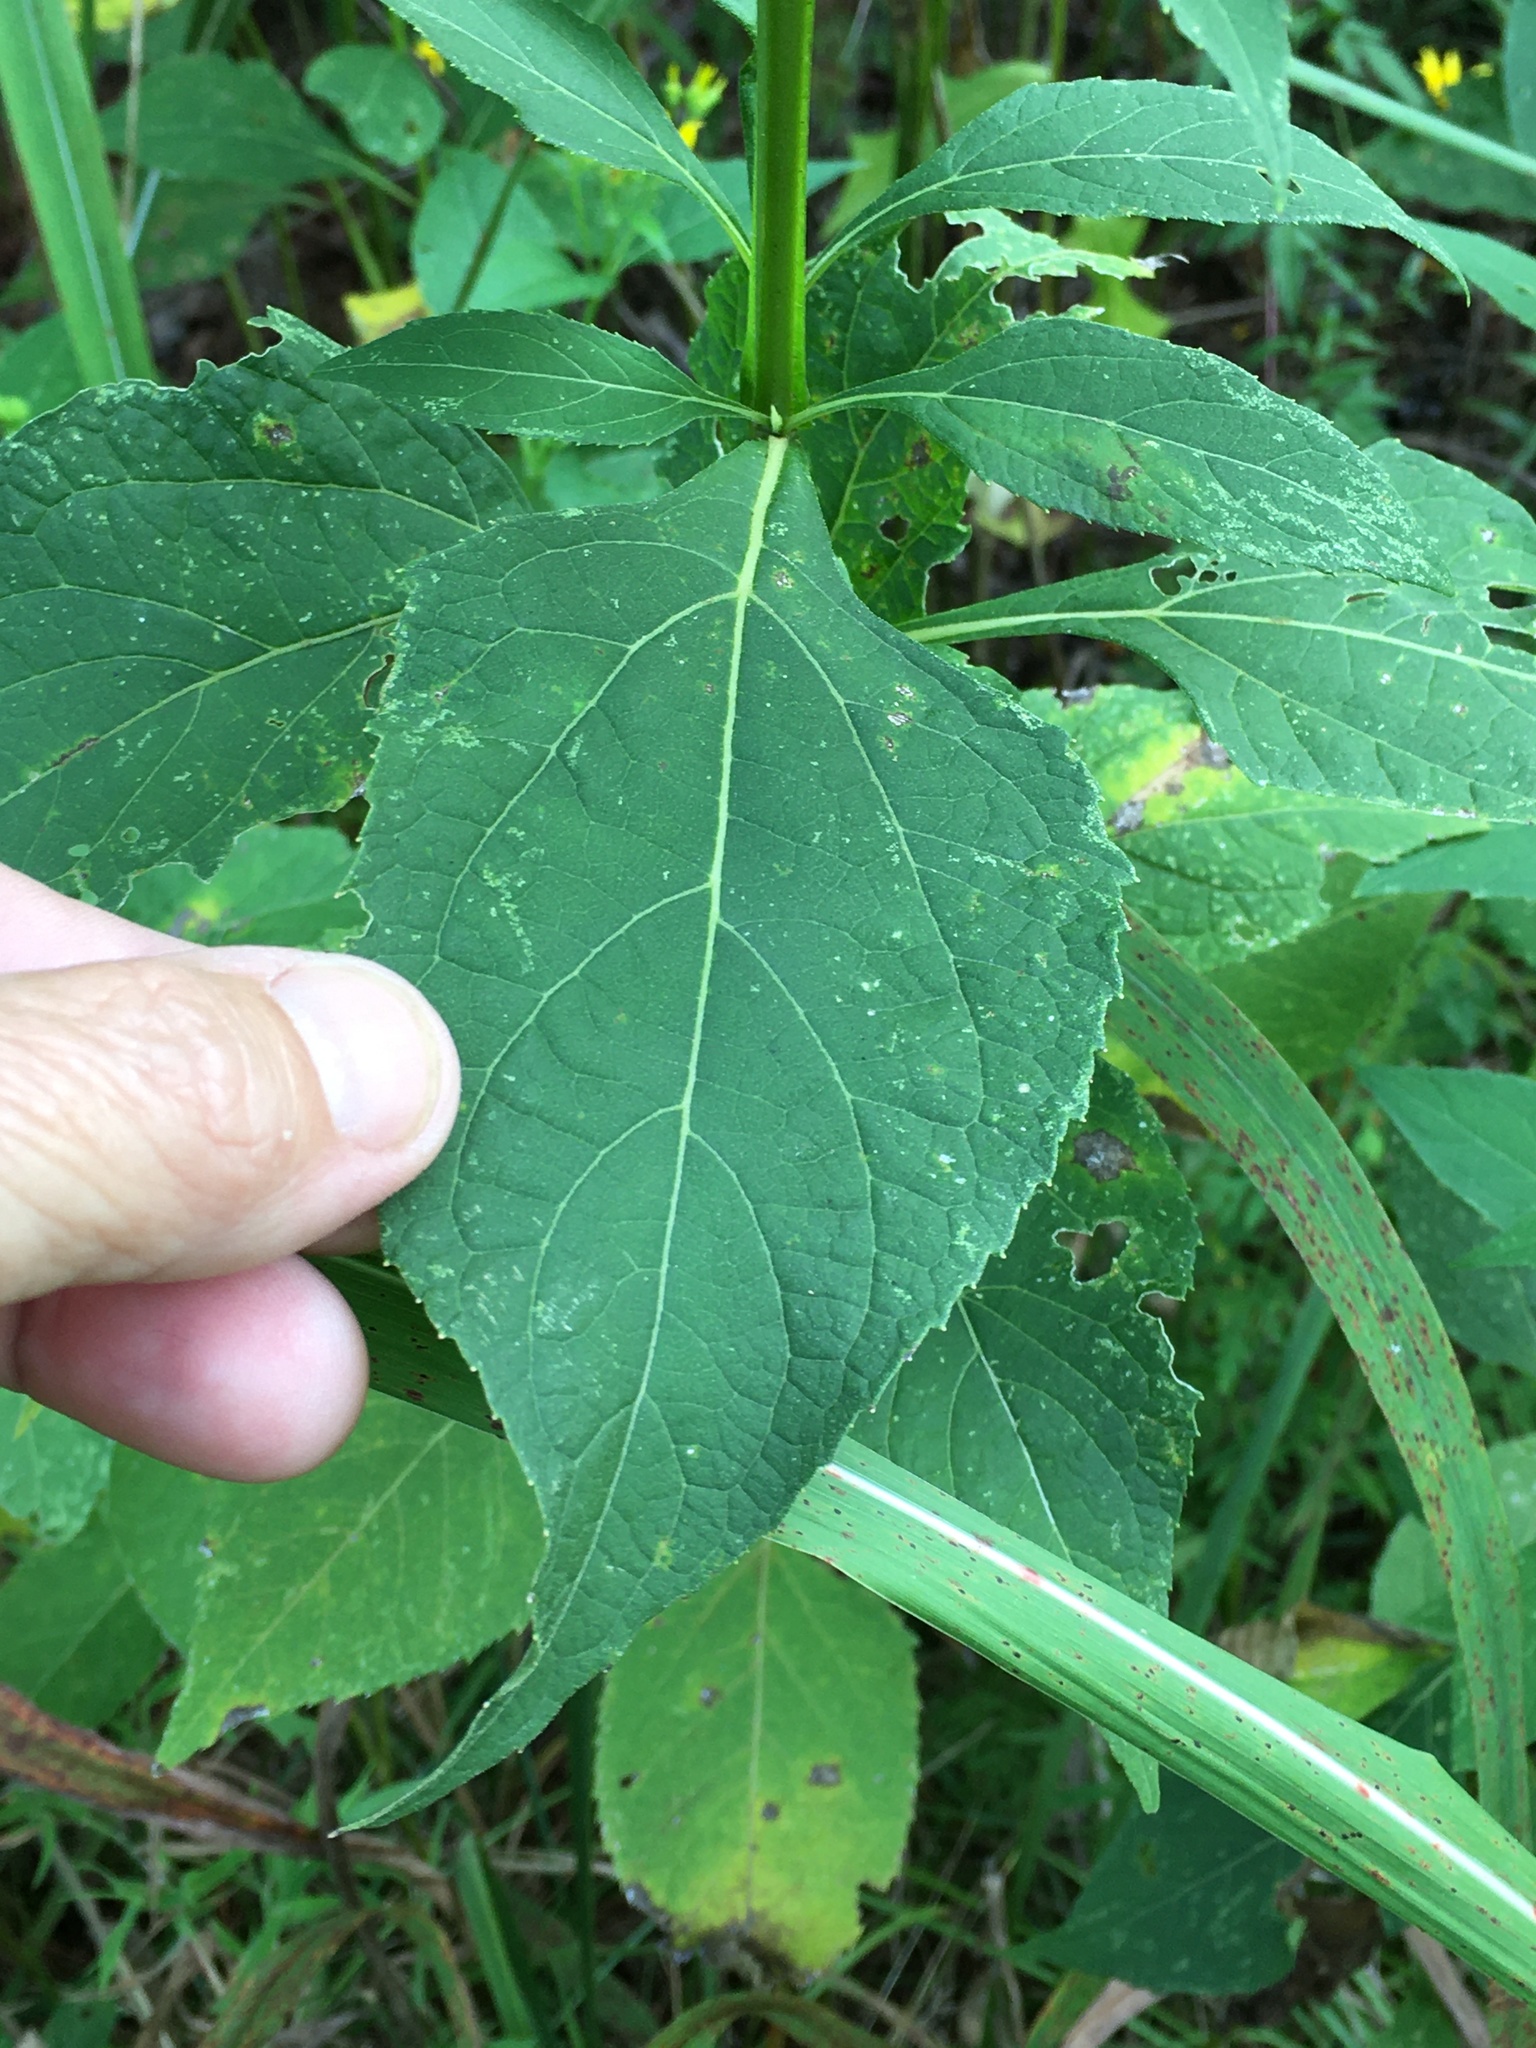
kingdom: Plantae
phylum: Tracheophyta
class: Magnoliopsida
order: Asterales
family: Asteraceae
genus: Verbesina
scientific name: Verbesina occidentalis
